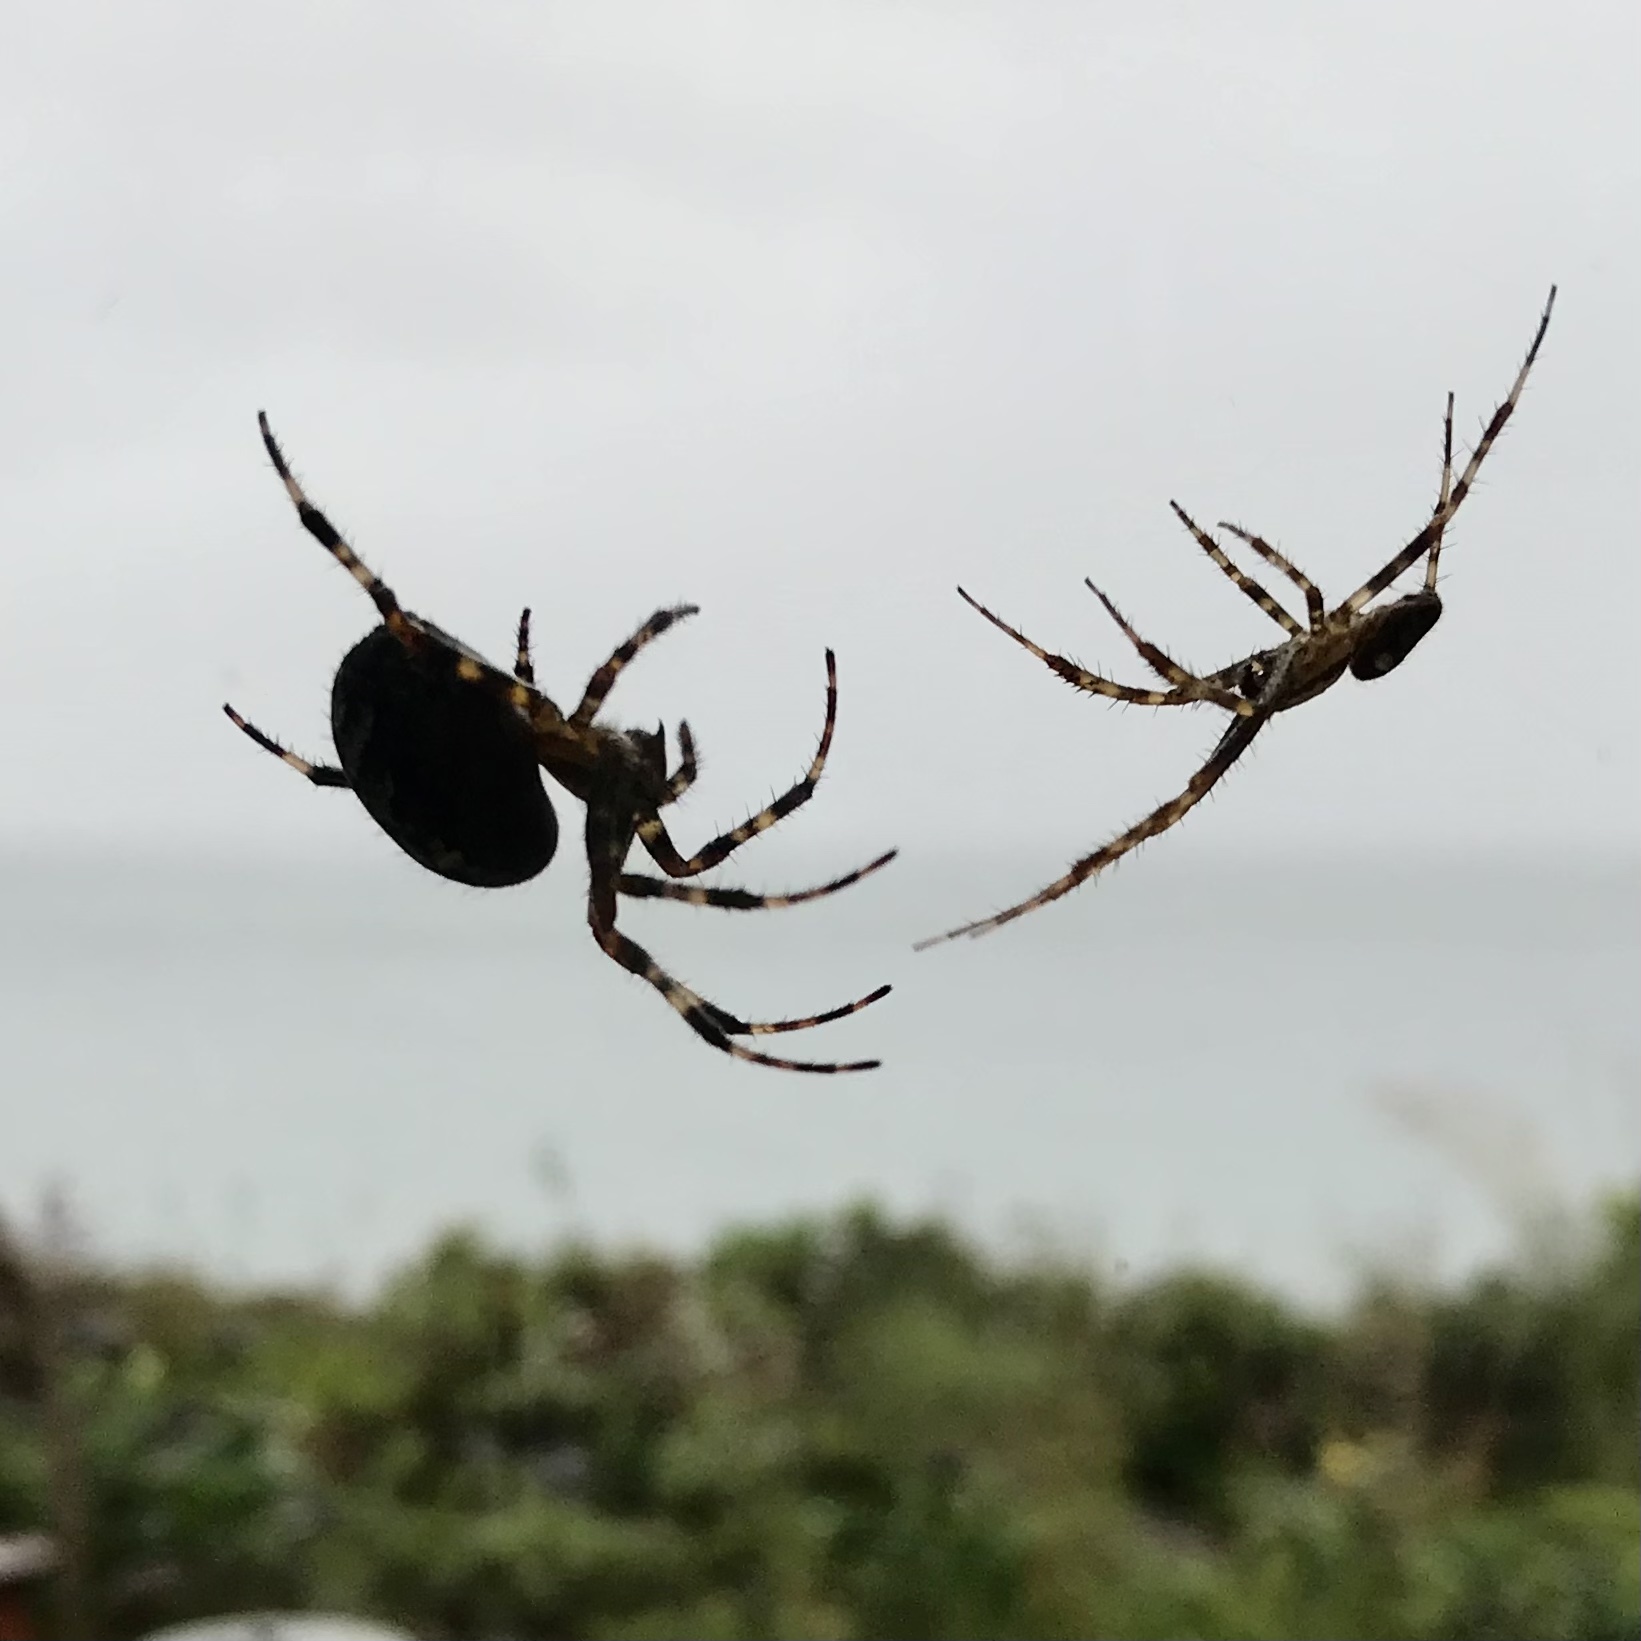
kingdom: Animalia
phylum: Arthropoda
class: Arachnida
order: Araneae
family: Araneidae
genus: Araneus
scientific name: Araneus diadematus
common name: Cross orbweaver
